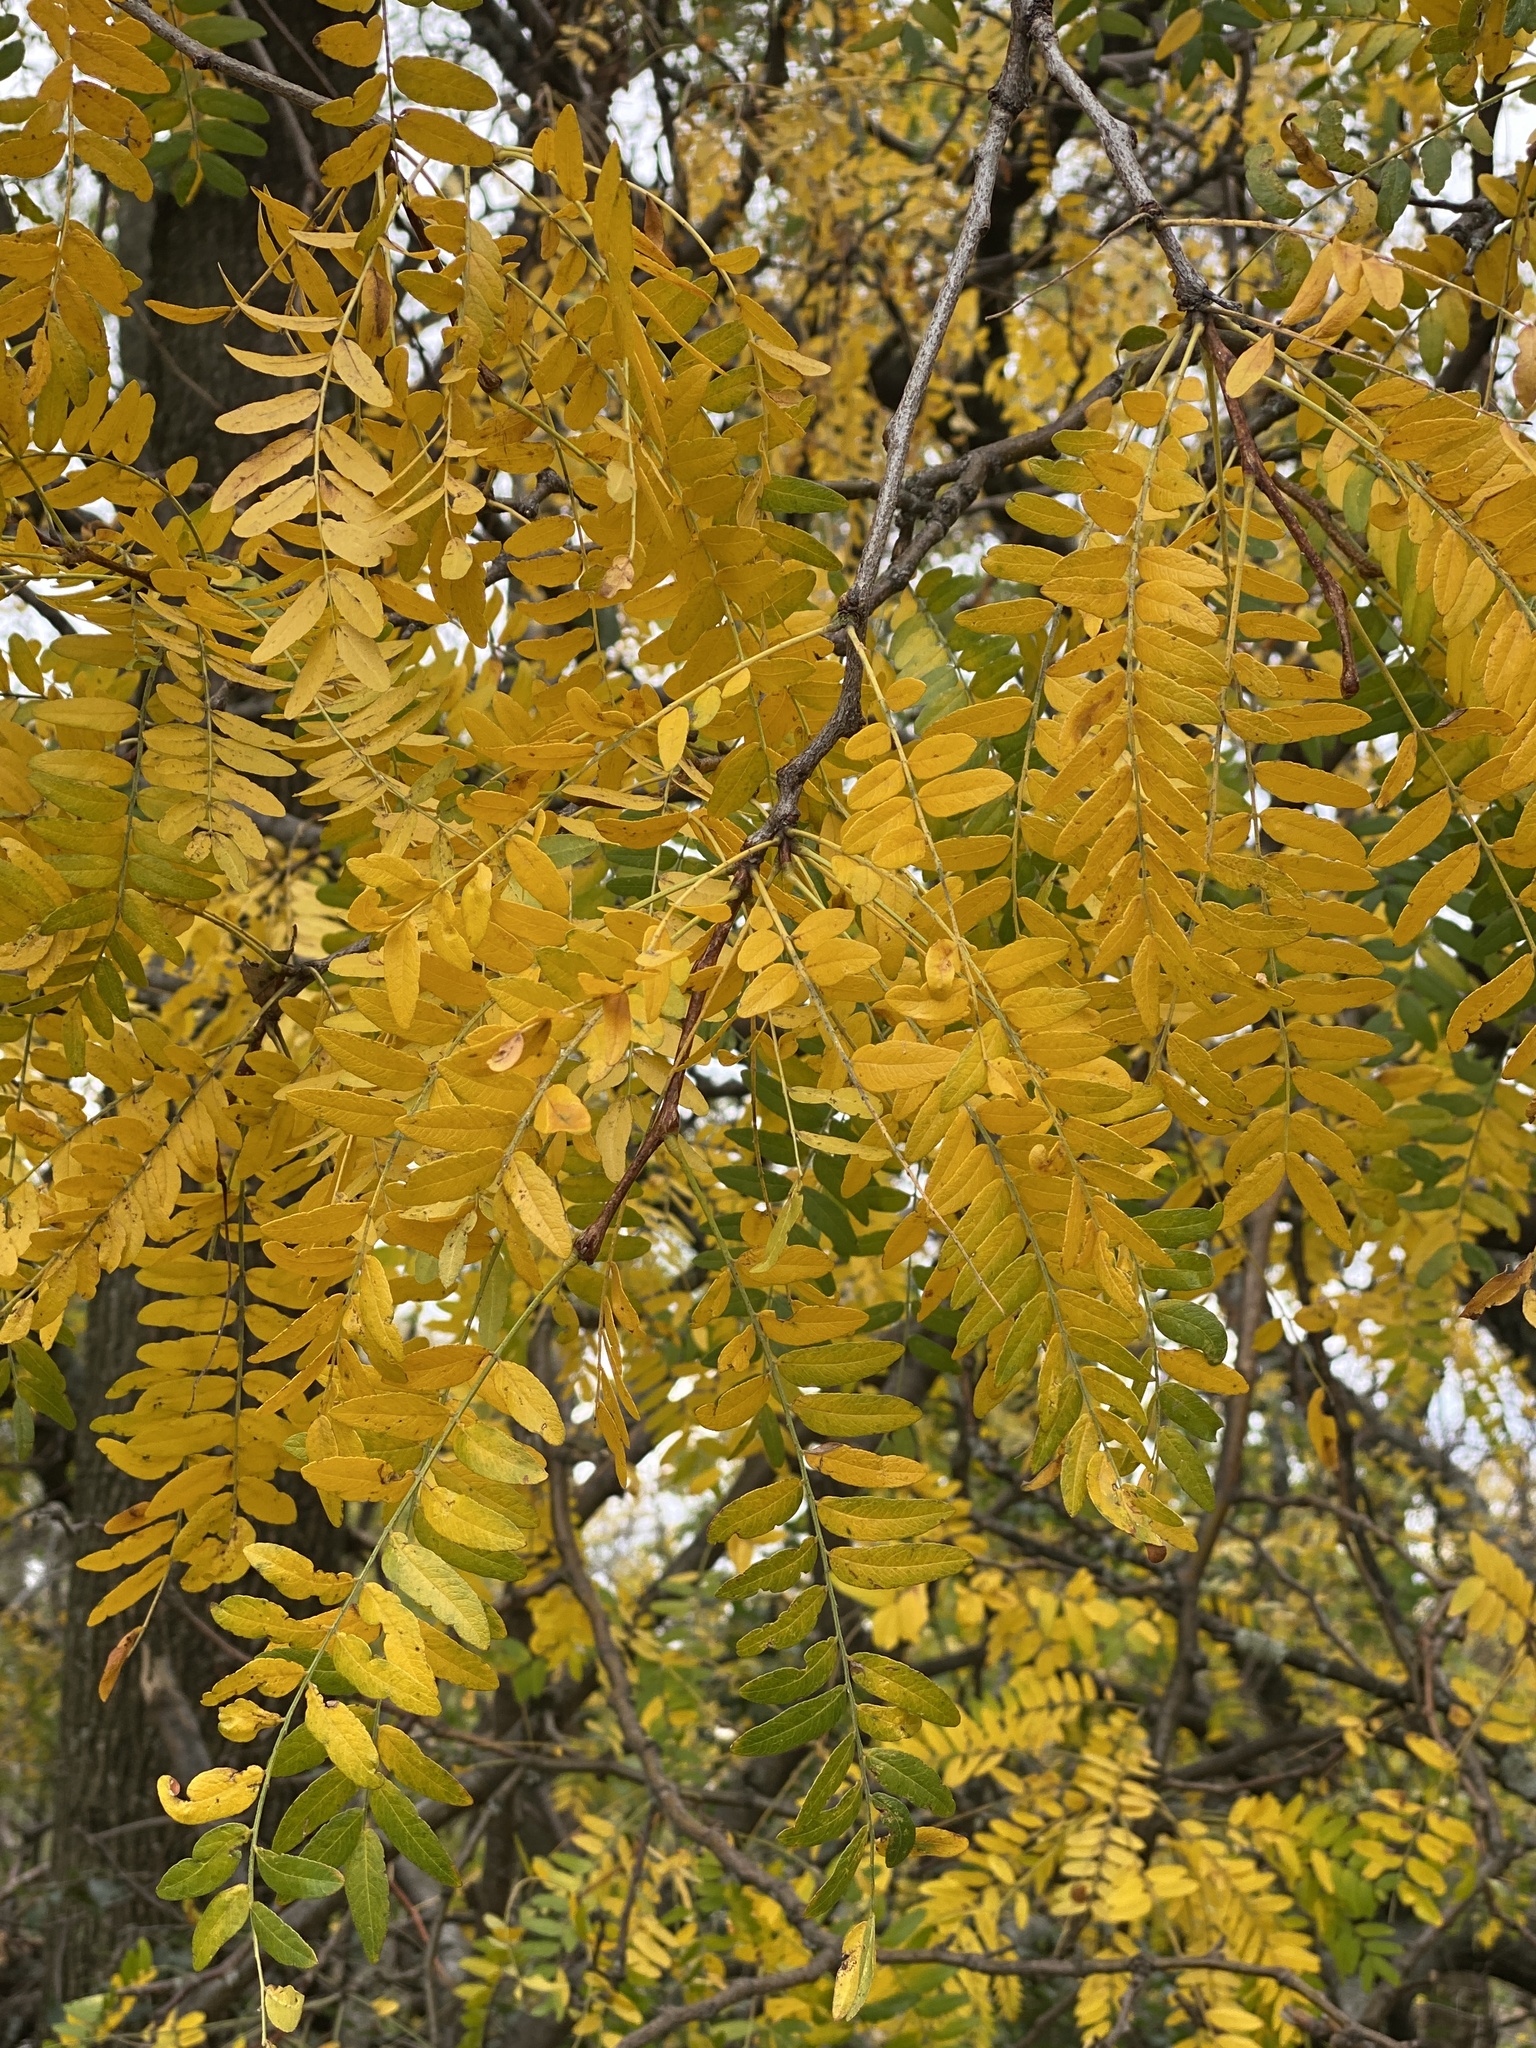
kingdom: Plantae
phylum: Tracheophyta
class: Magnoliopsida
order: Fabales
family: Fabaceae
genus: Gleditsia
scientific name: Gleditsia triacanthos
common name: Common honeylocust
